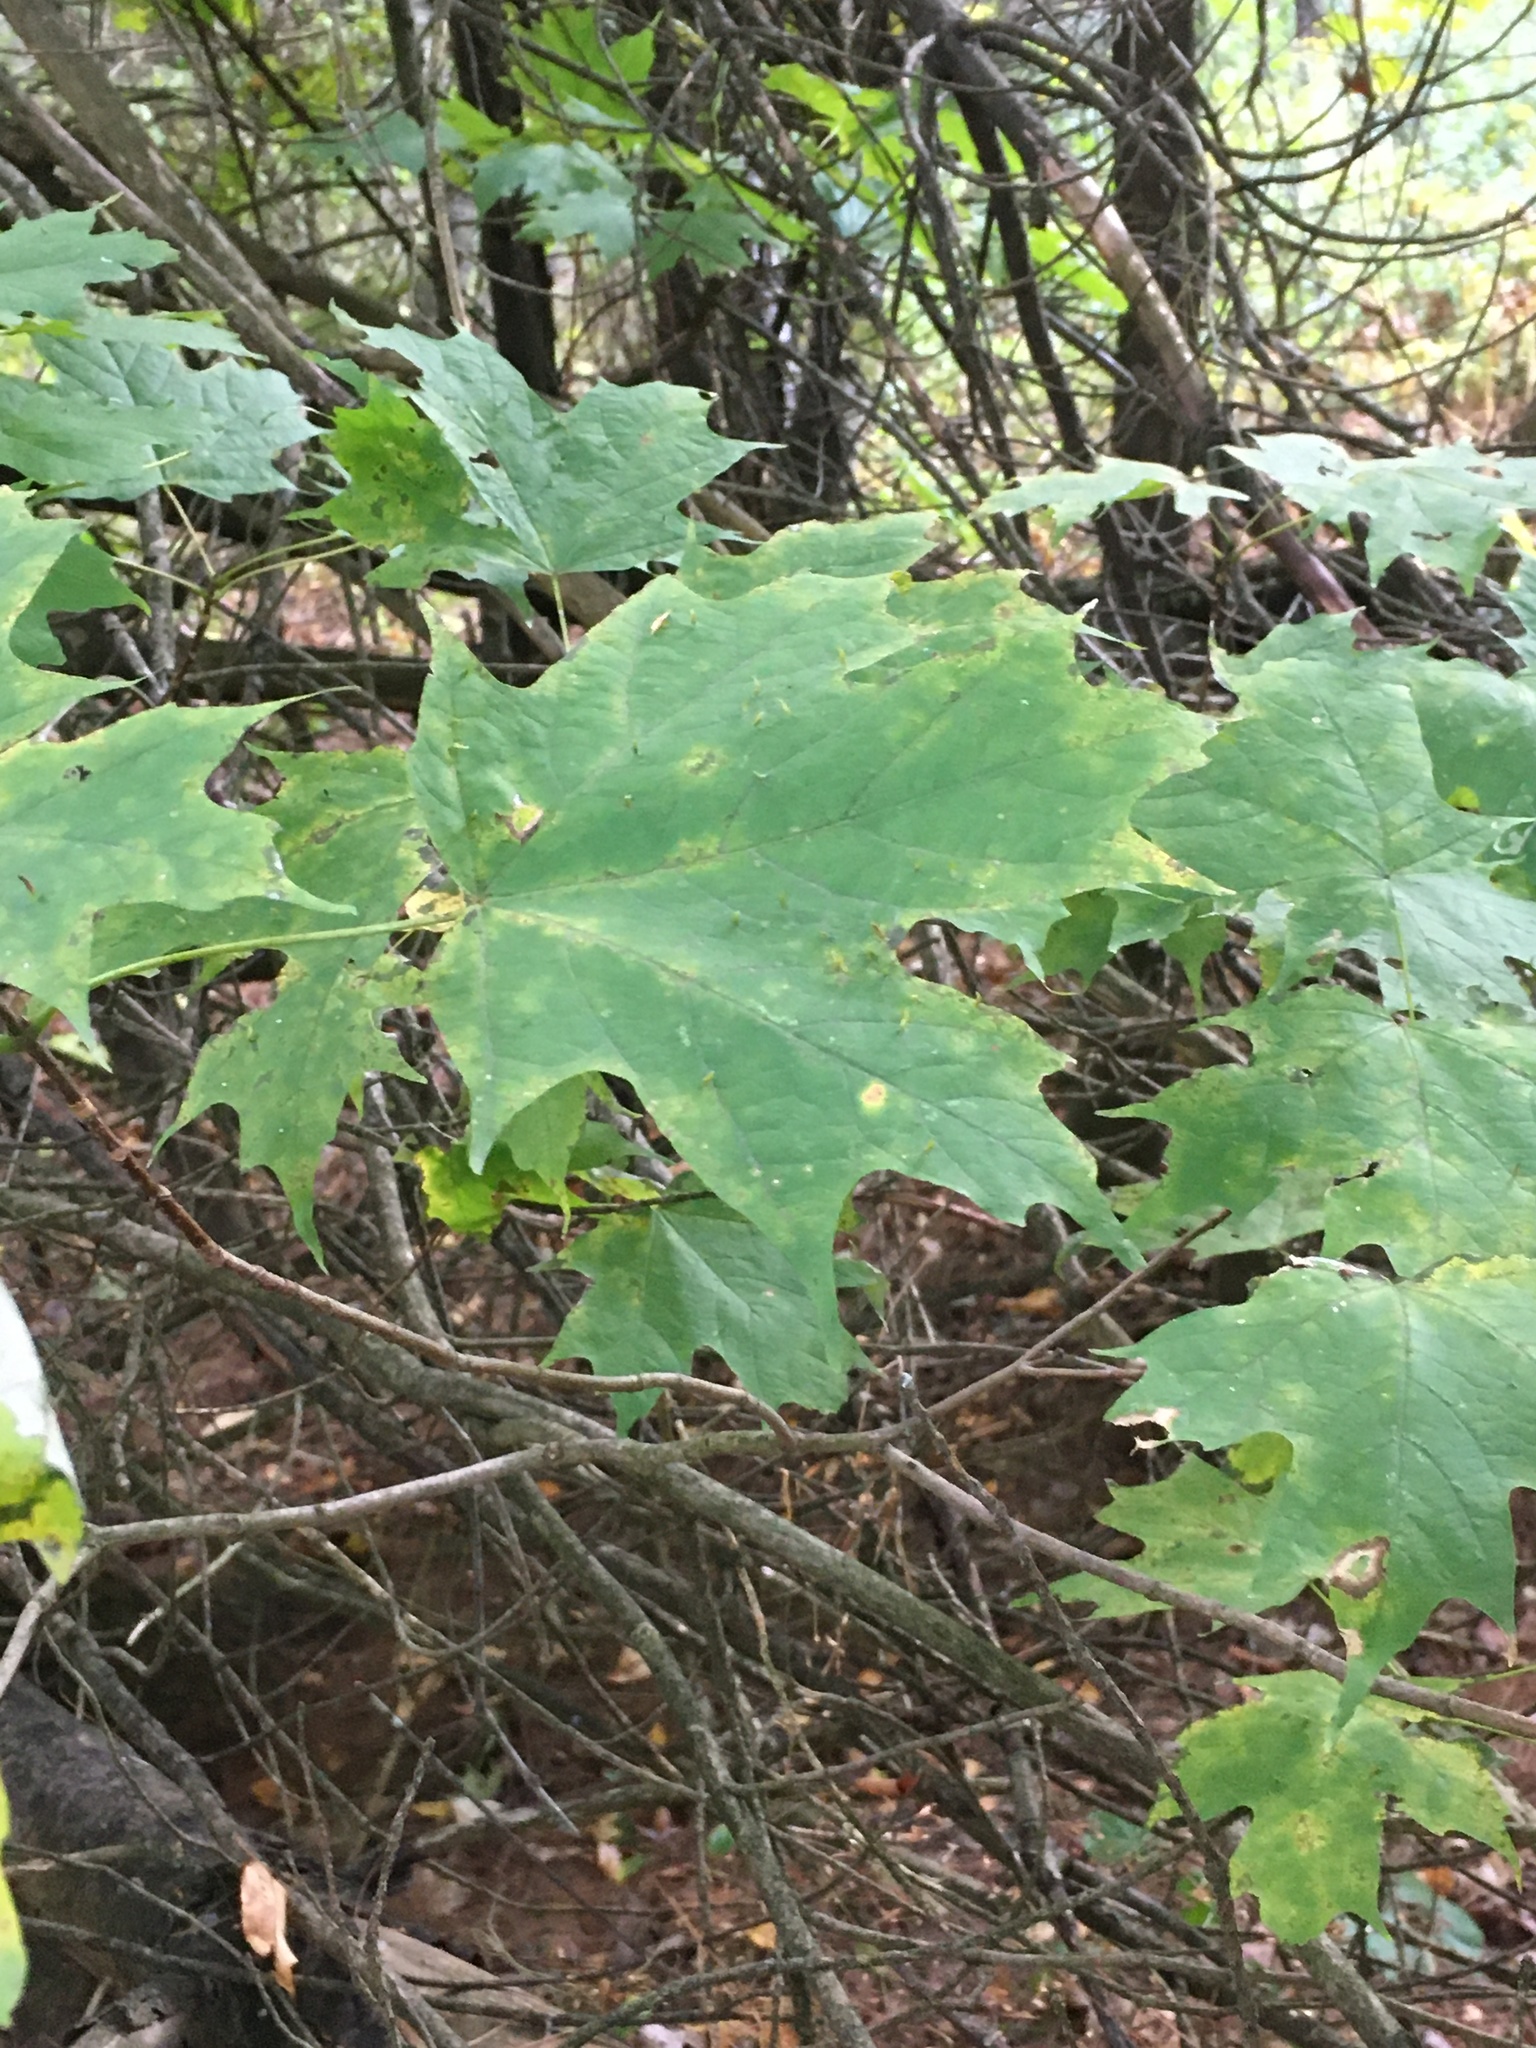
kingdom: Plantae
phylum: Tracheophyta
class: Magnoliopsida
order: Sapindales
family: Sapindaceae
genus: Acer
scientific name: Acer saccharum
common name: Sugar maple
